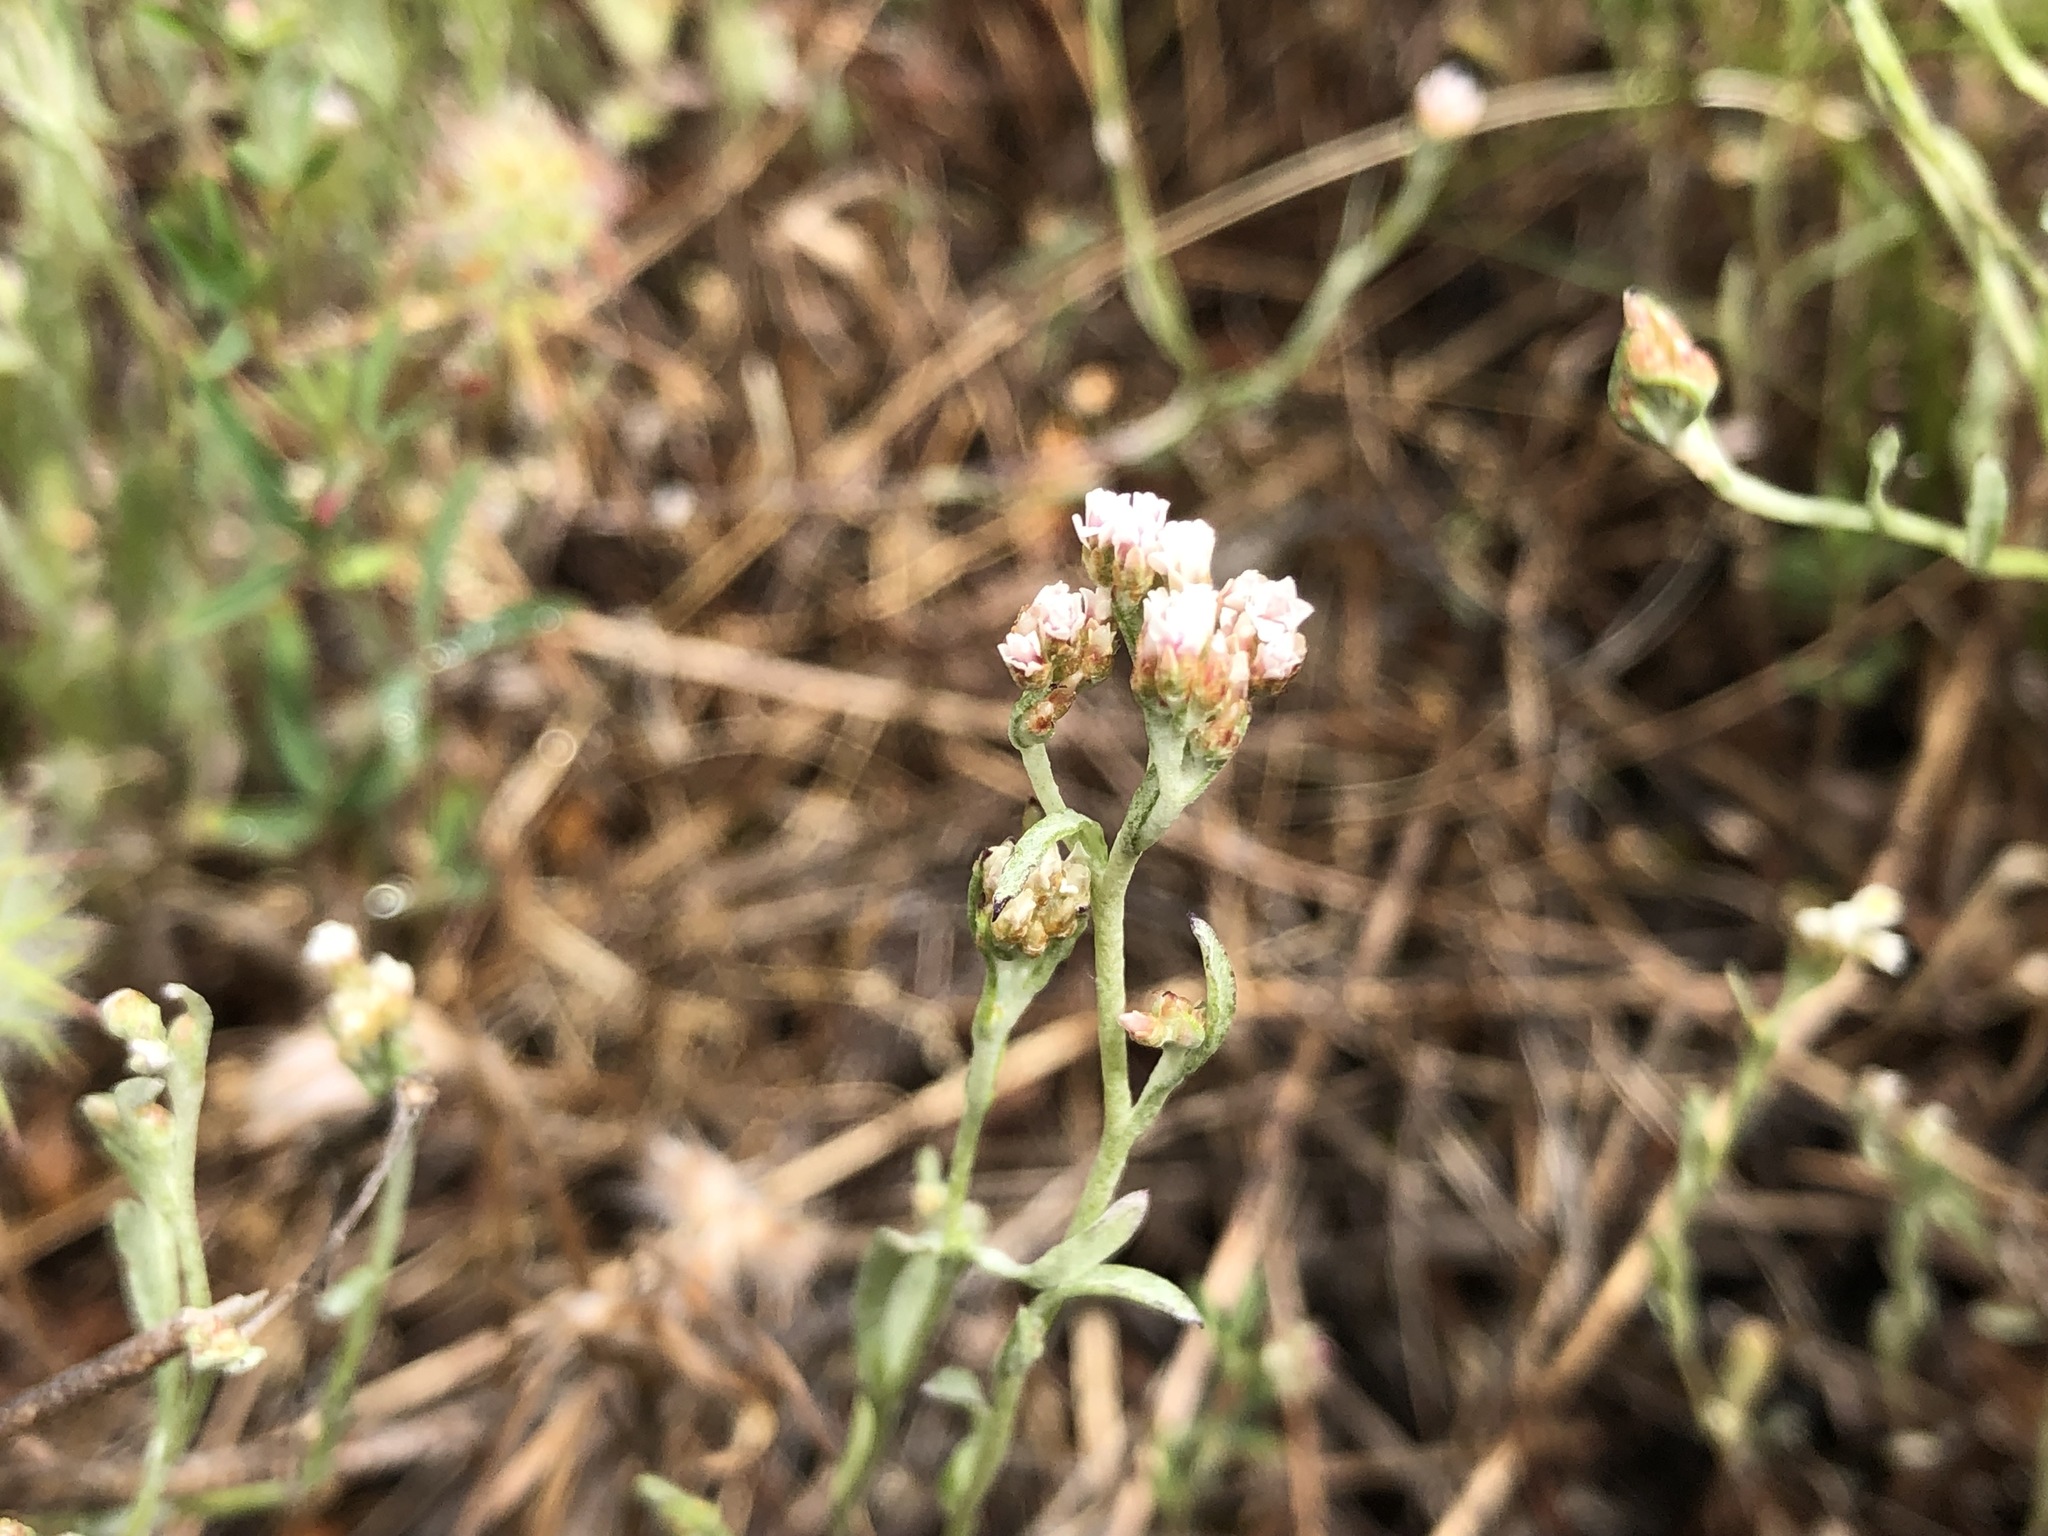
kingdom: Plantae
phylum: Tracheophyta
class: Magnoliopsida
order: Asterales
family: Asteraceae
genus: Helichrysum
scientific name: Helichrysum indicum
